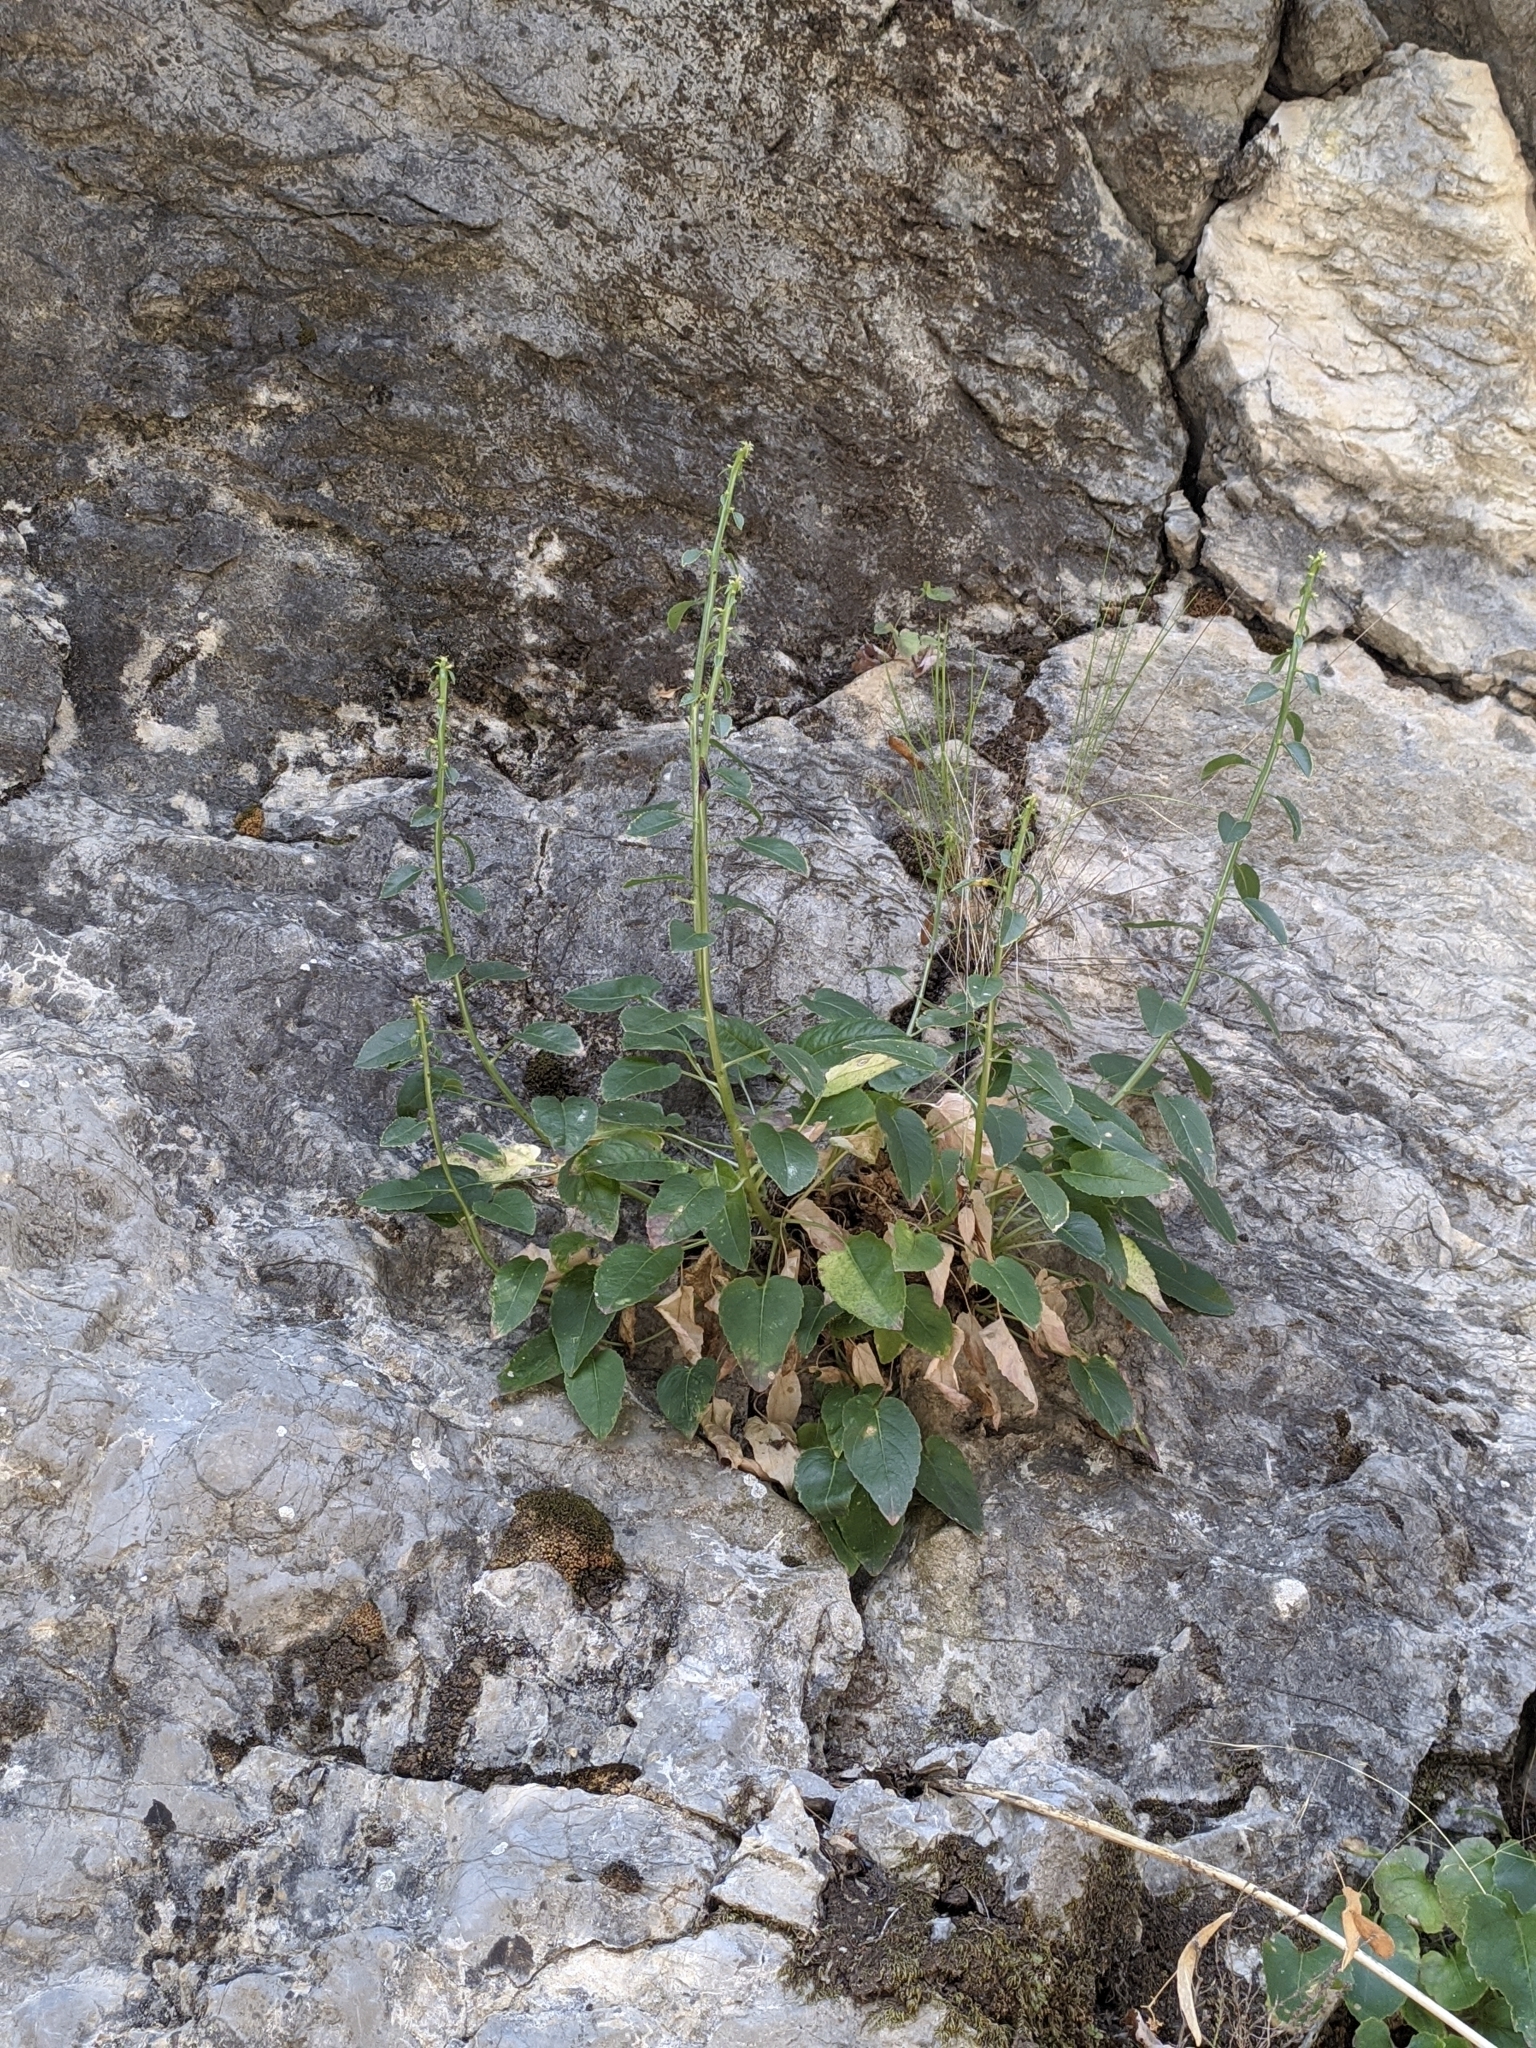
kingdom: Plantae
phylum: Tracheophyta
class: Magnoliopsida
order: Lamiales
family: Scrophulariaceae
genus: Scrophularia
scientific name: Scrophularia nodosa
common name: Common figwort
